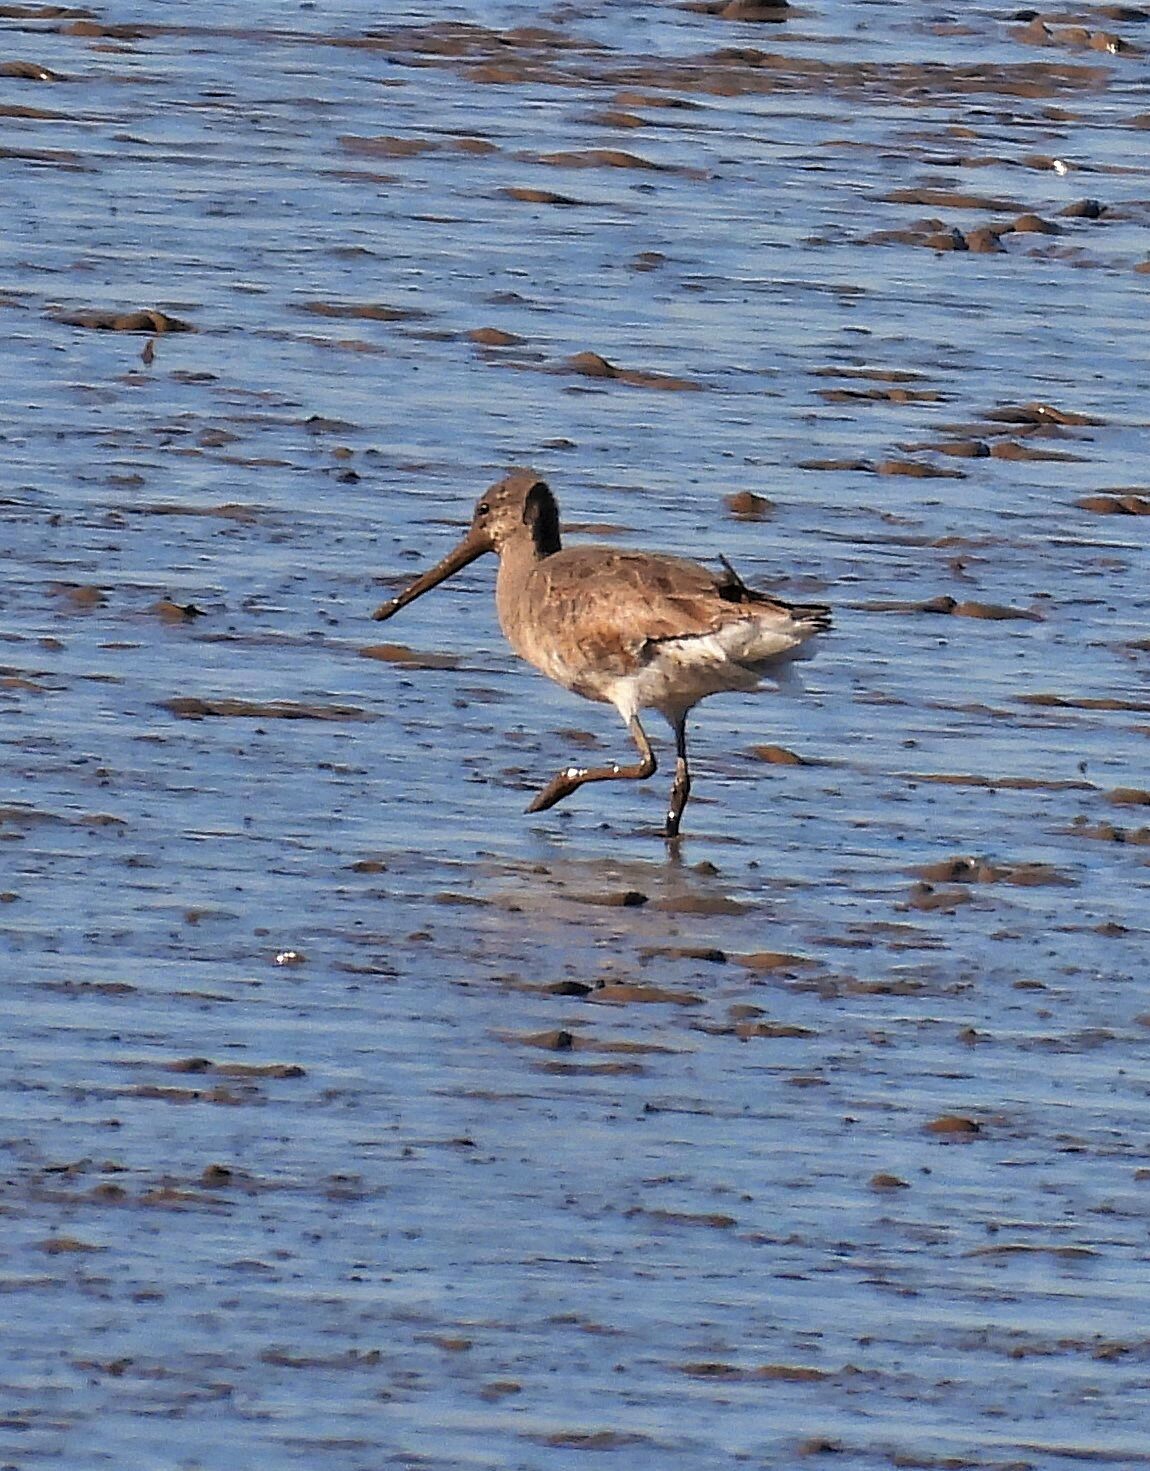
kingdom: Animalia
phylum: Chordata
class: Aves
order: Charadriiformes
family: Scolopacidae
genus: Limosa
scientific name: Limosa haemastica
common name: Hudsonian godwit
